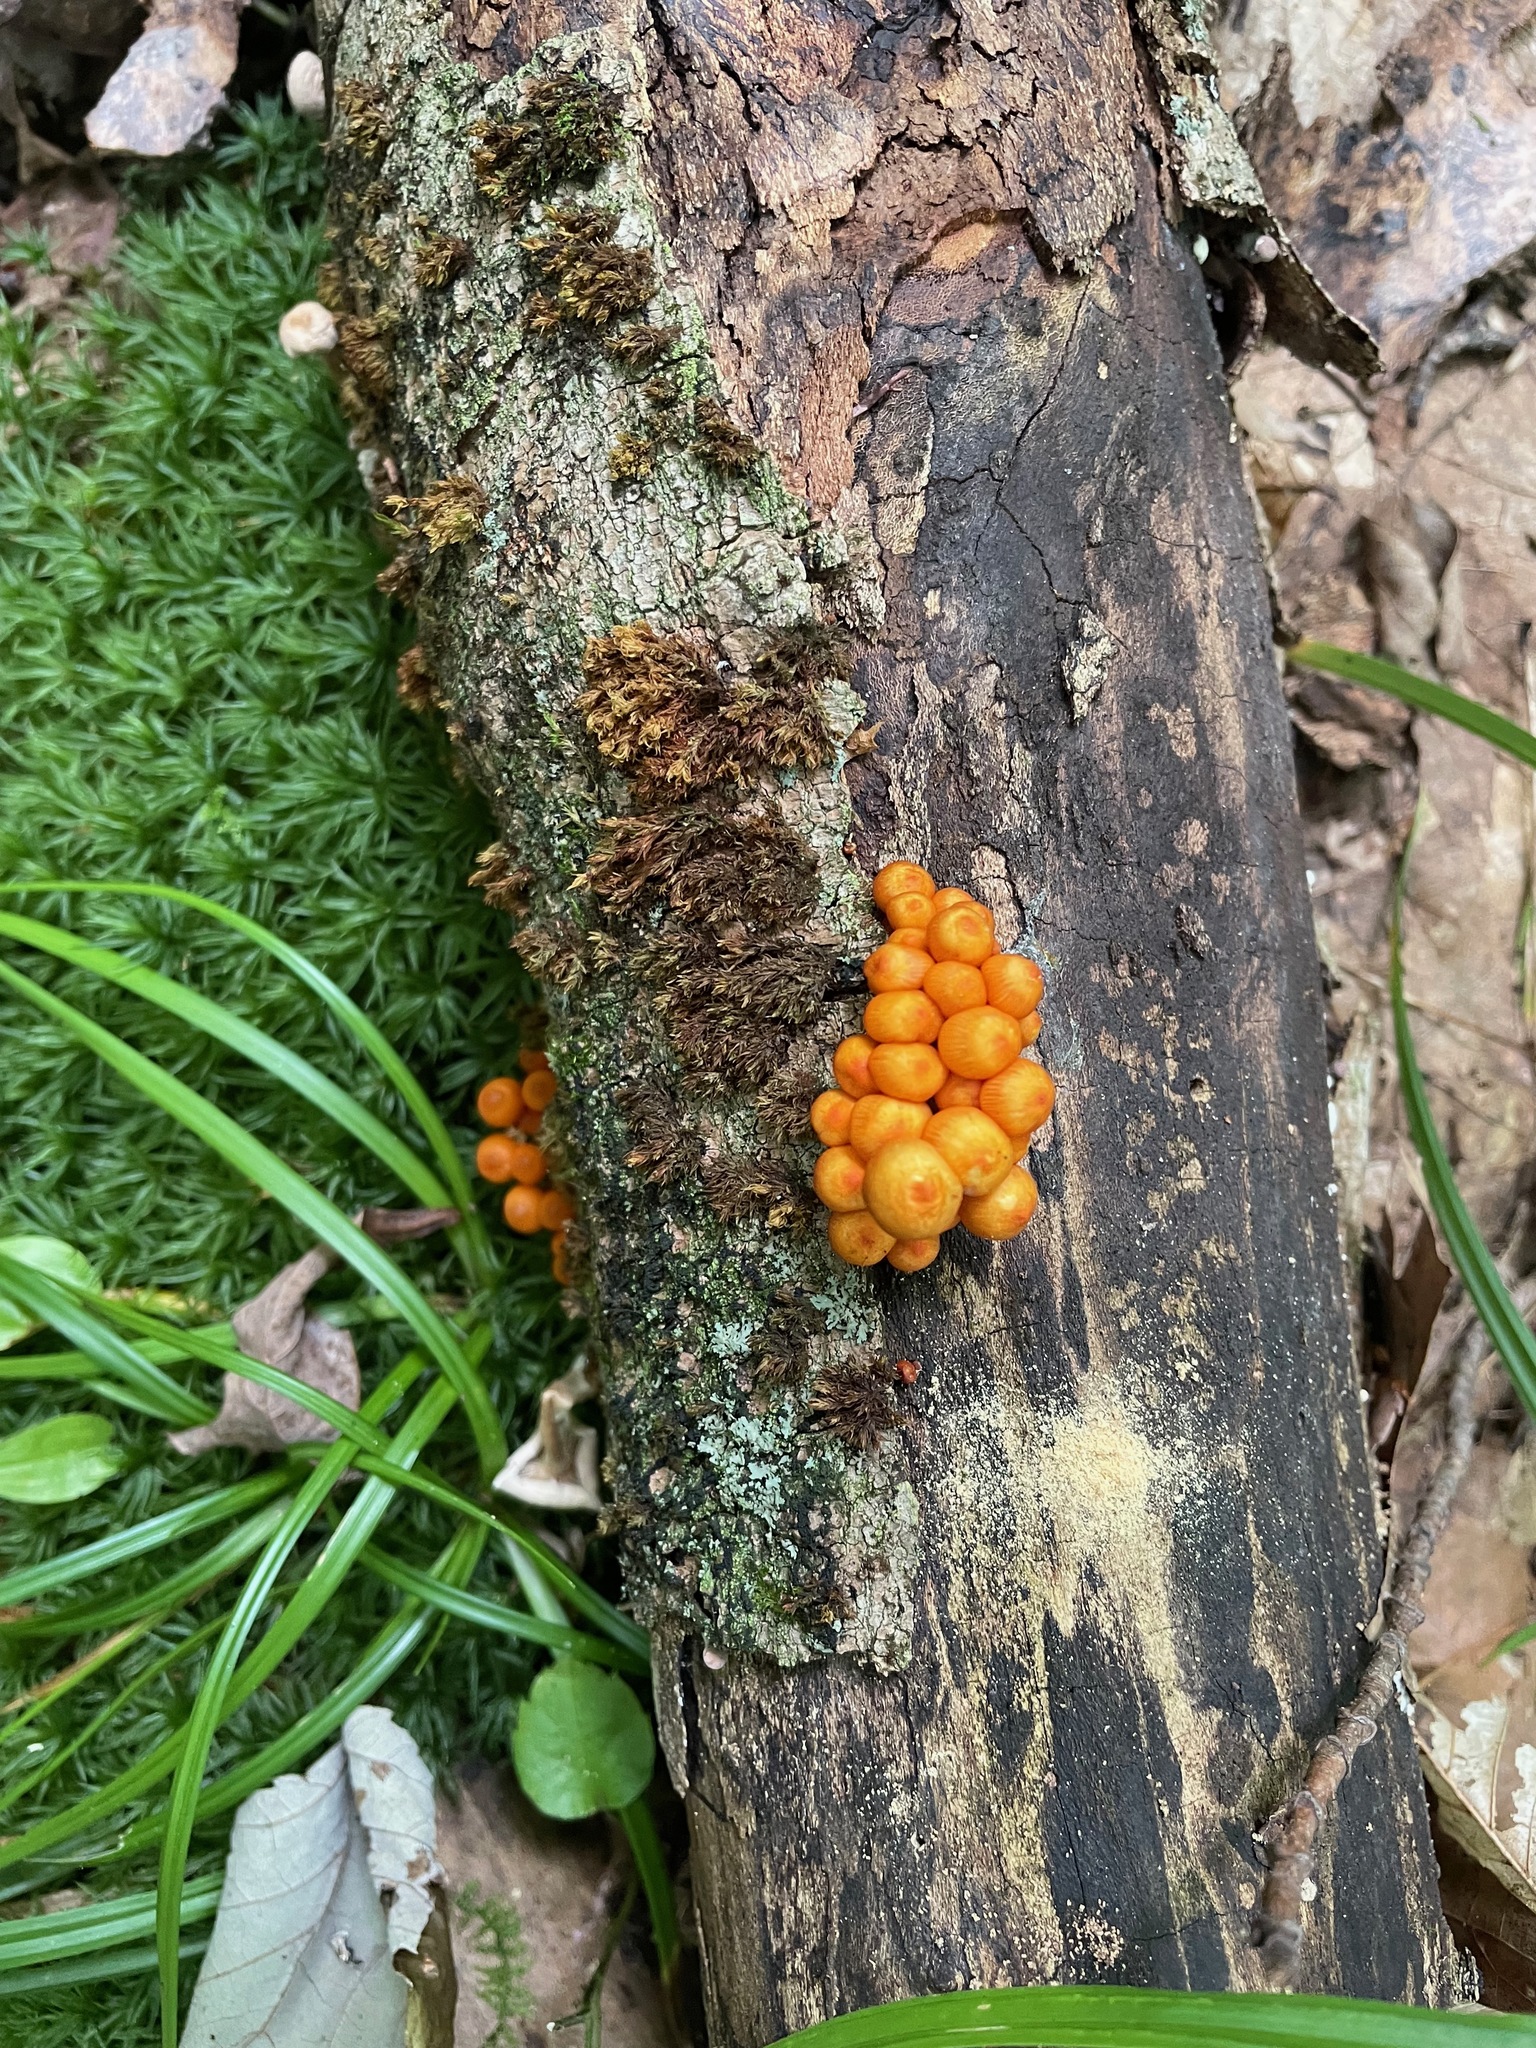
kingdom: Fungi
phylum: Basidiomycota
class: Agaricomycetes
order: Agaricales
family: Mycenaceae
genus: Mycena
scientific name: Mycena leaiana
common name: Orange mycena
